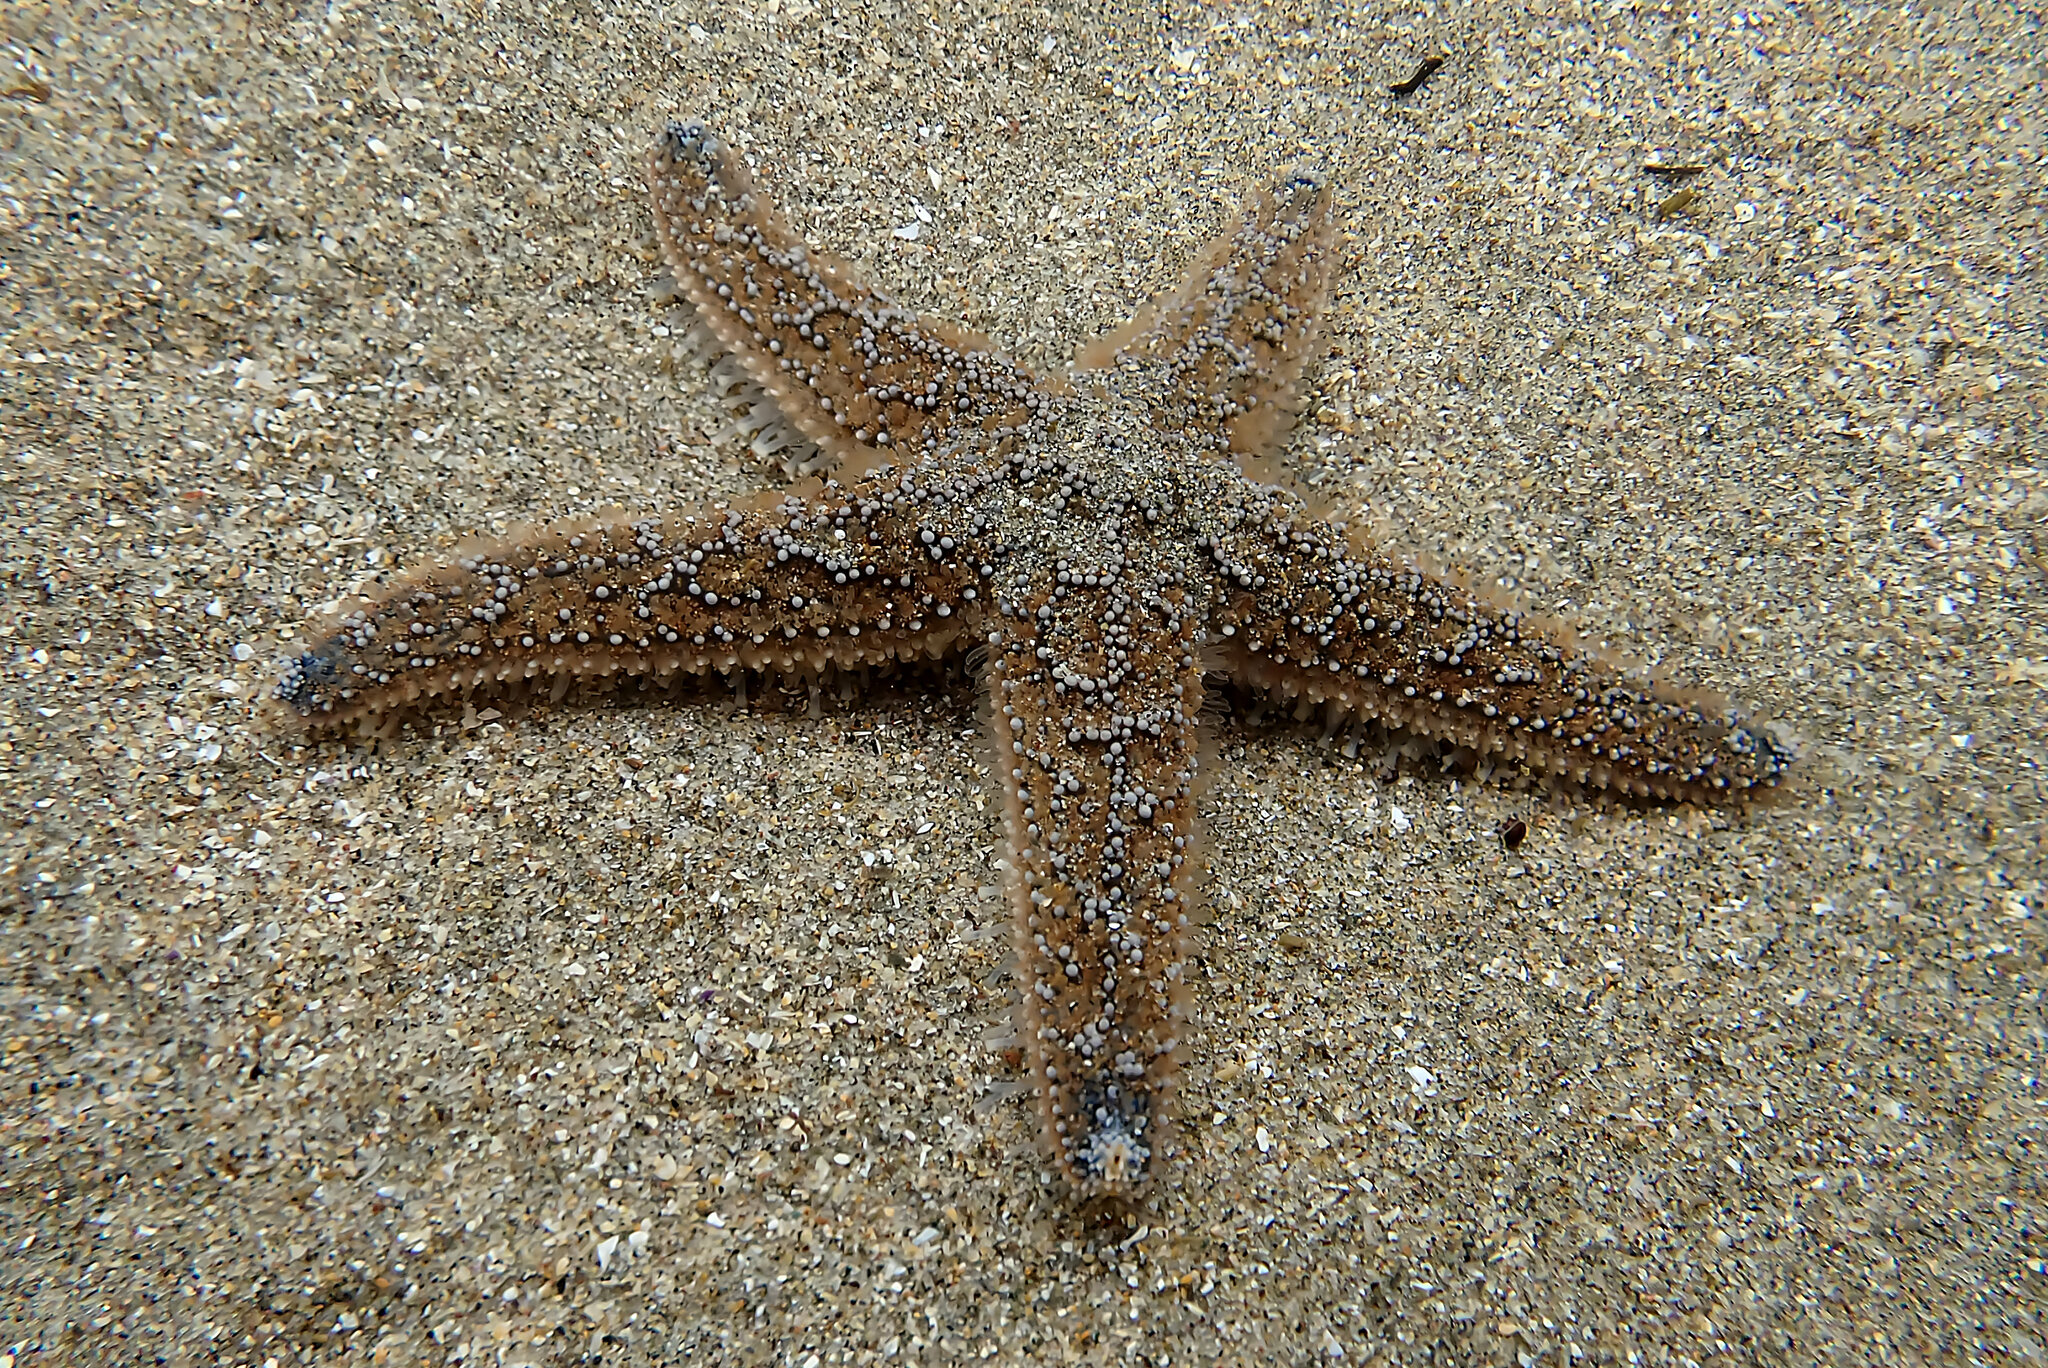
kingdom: Animalia
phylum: Echinodermata
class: Asteroidea
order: Forcipulatida
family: Asteriidae
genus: Pisaster
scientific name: Pisaster ochraceus
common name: Ochre stars
